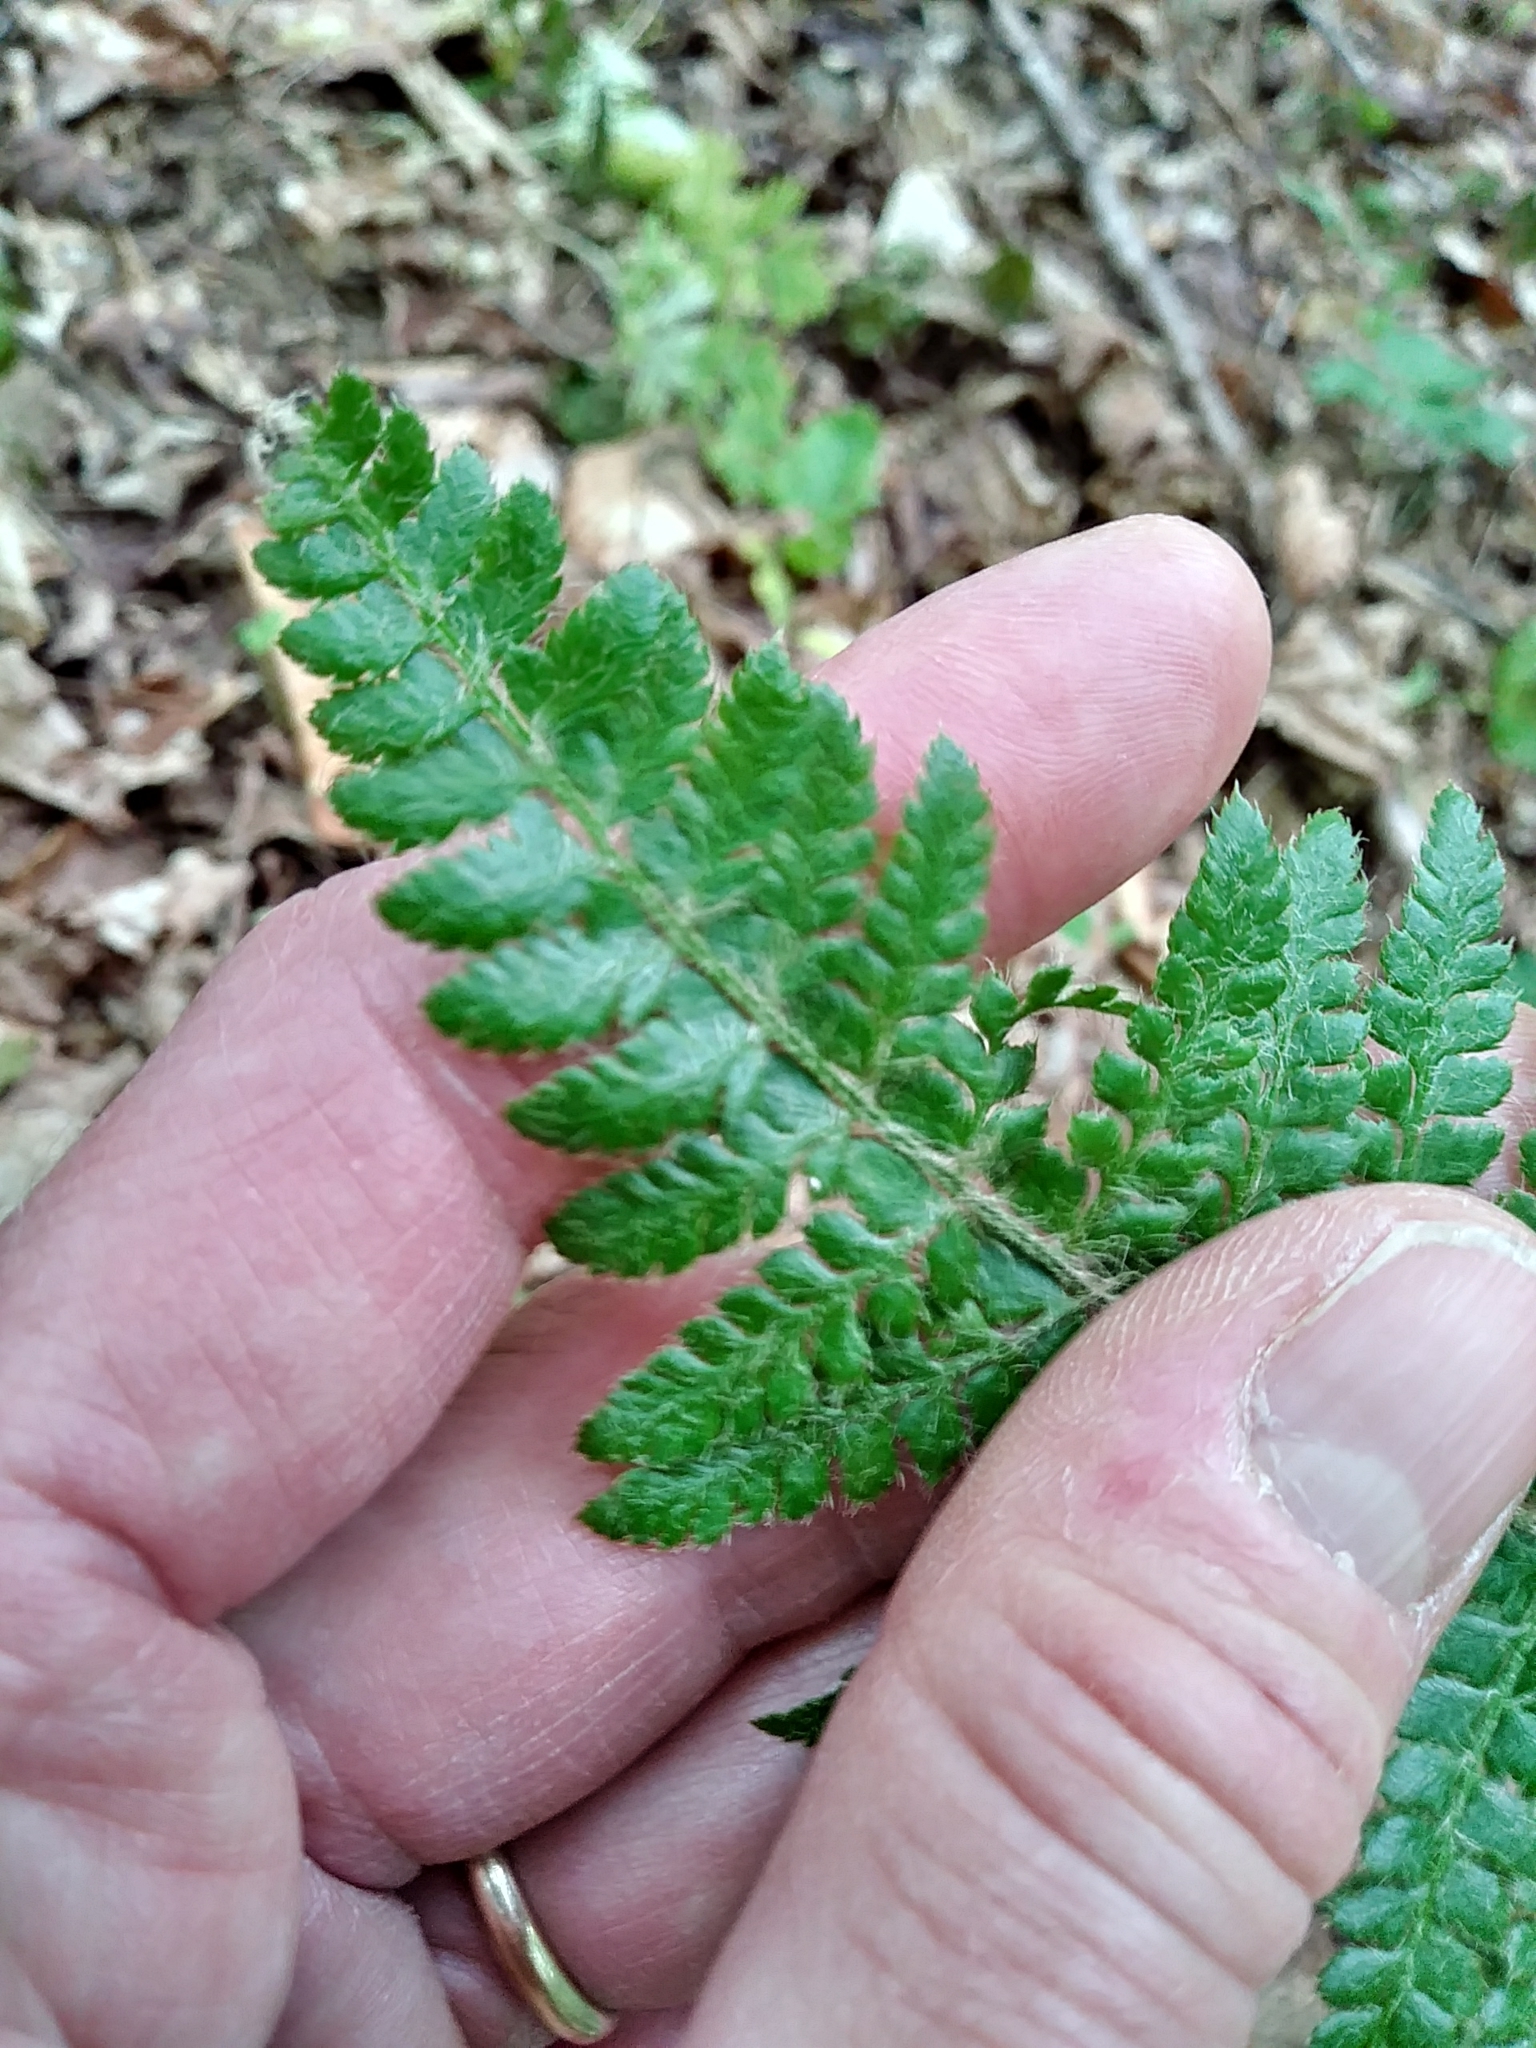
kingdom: Plantae
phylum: Tracheophyta
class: Polypodiopsida
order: Polypodiales
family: Dryopteridaceae
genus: Polystichum
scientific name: Polystichum braunii
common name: Braun's holly fern
